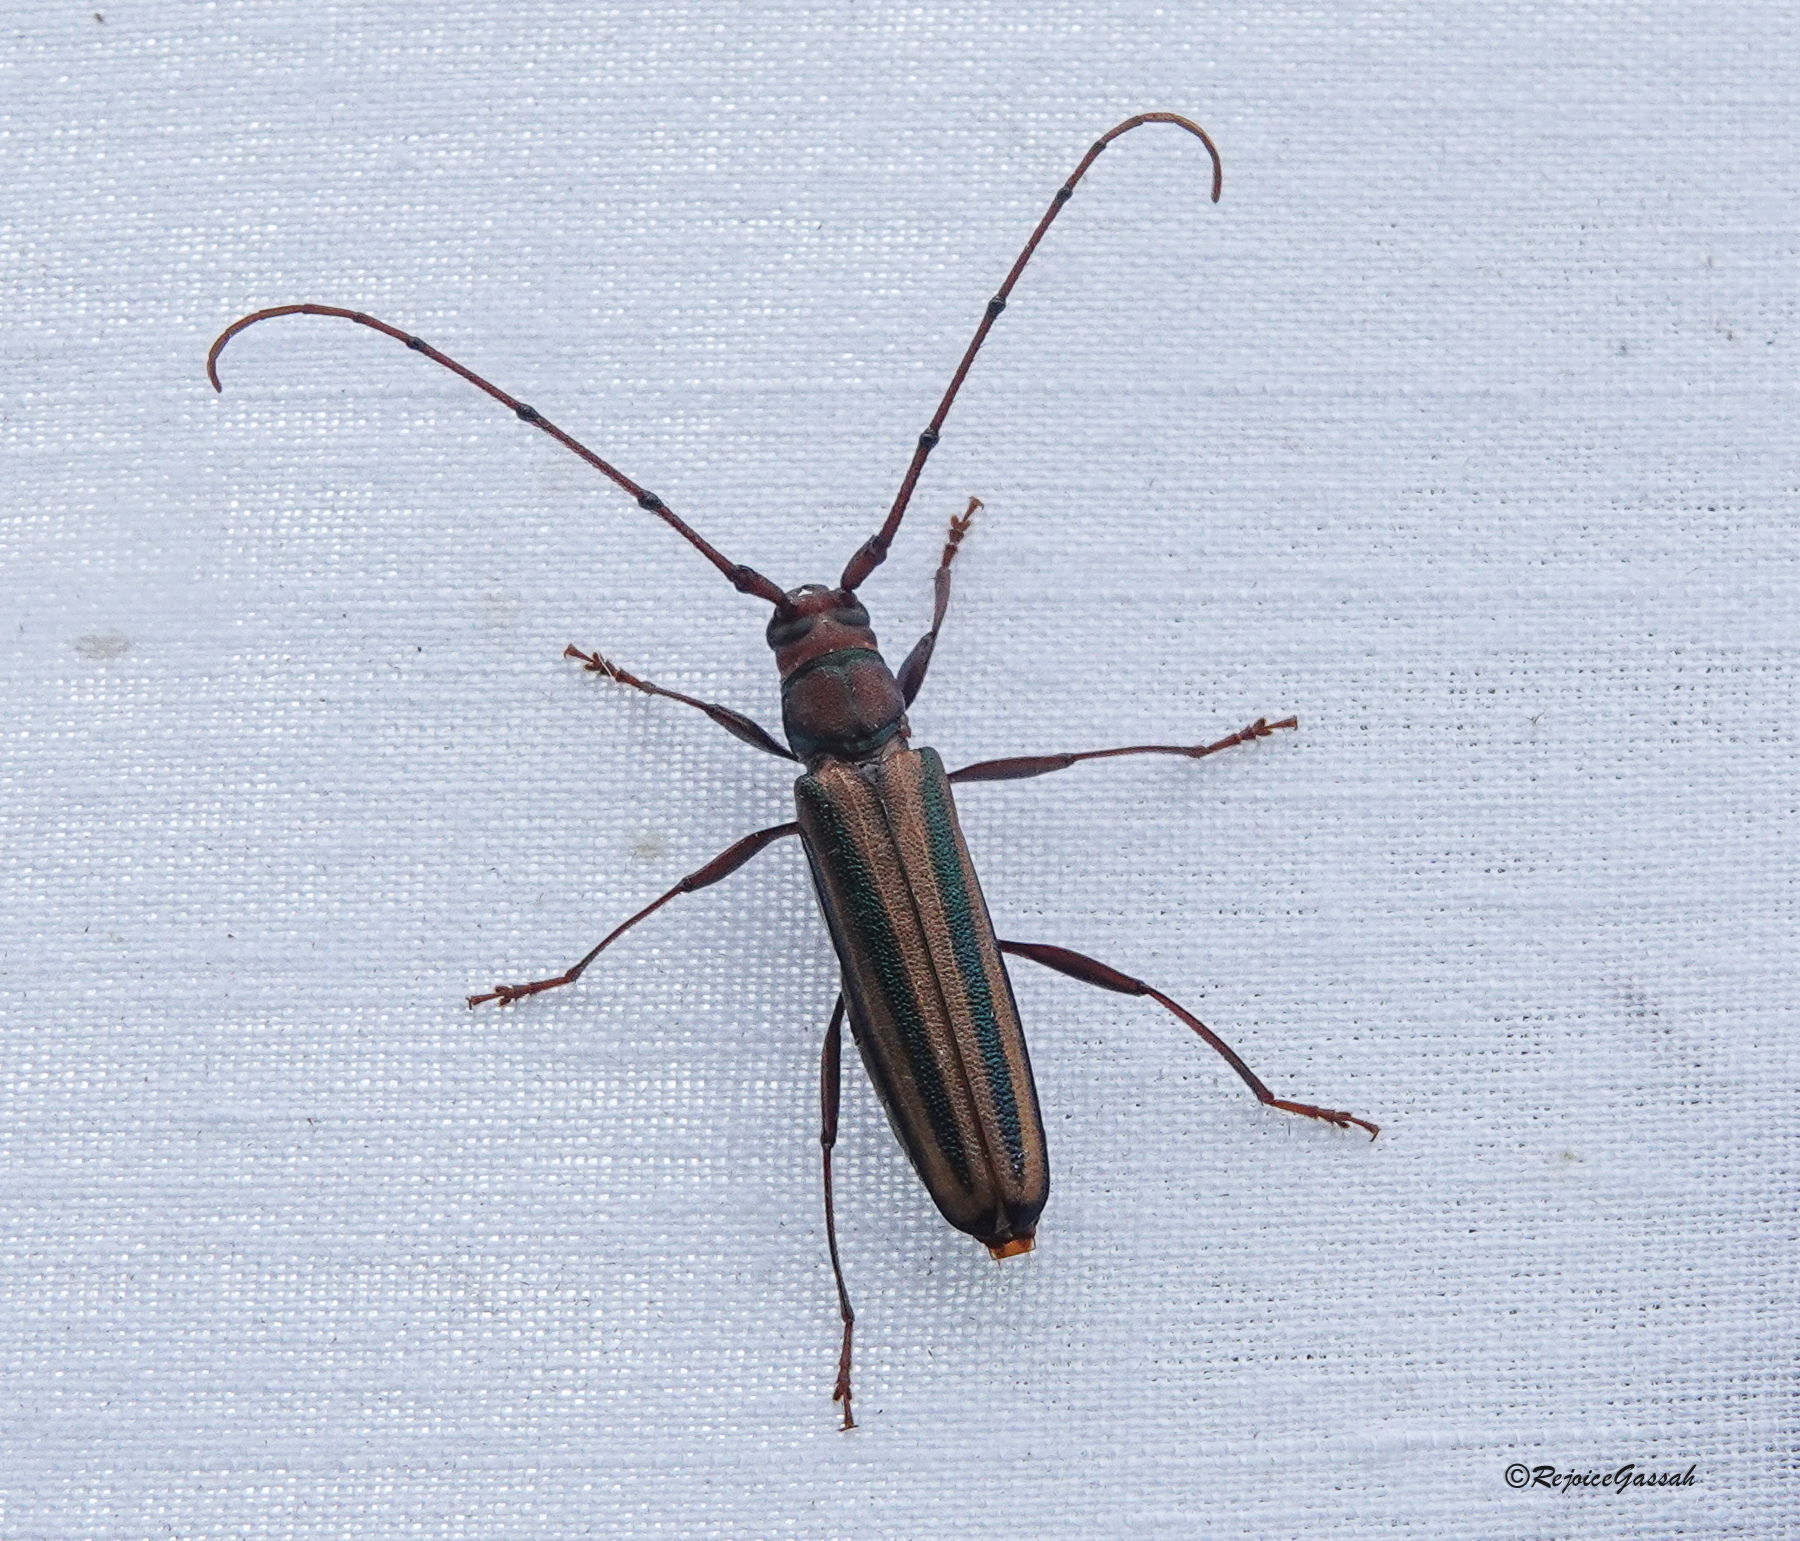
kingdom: Animalia
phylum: Arthropoda
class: Insecta
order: Coleoptera
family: Cerambycidae
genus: Xystrocera
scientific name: Xystrocera globosa
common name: Peach-tree longhorn
